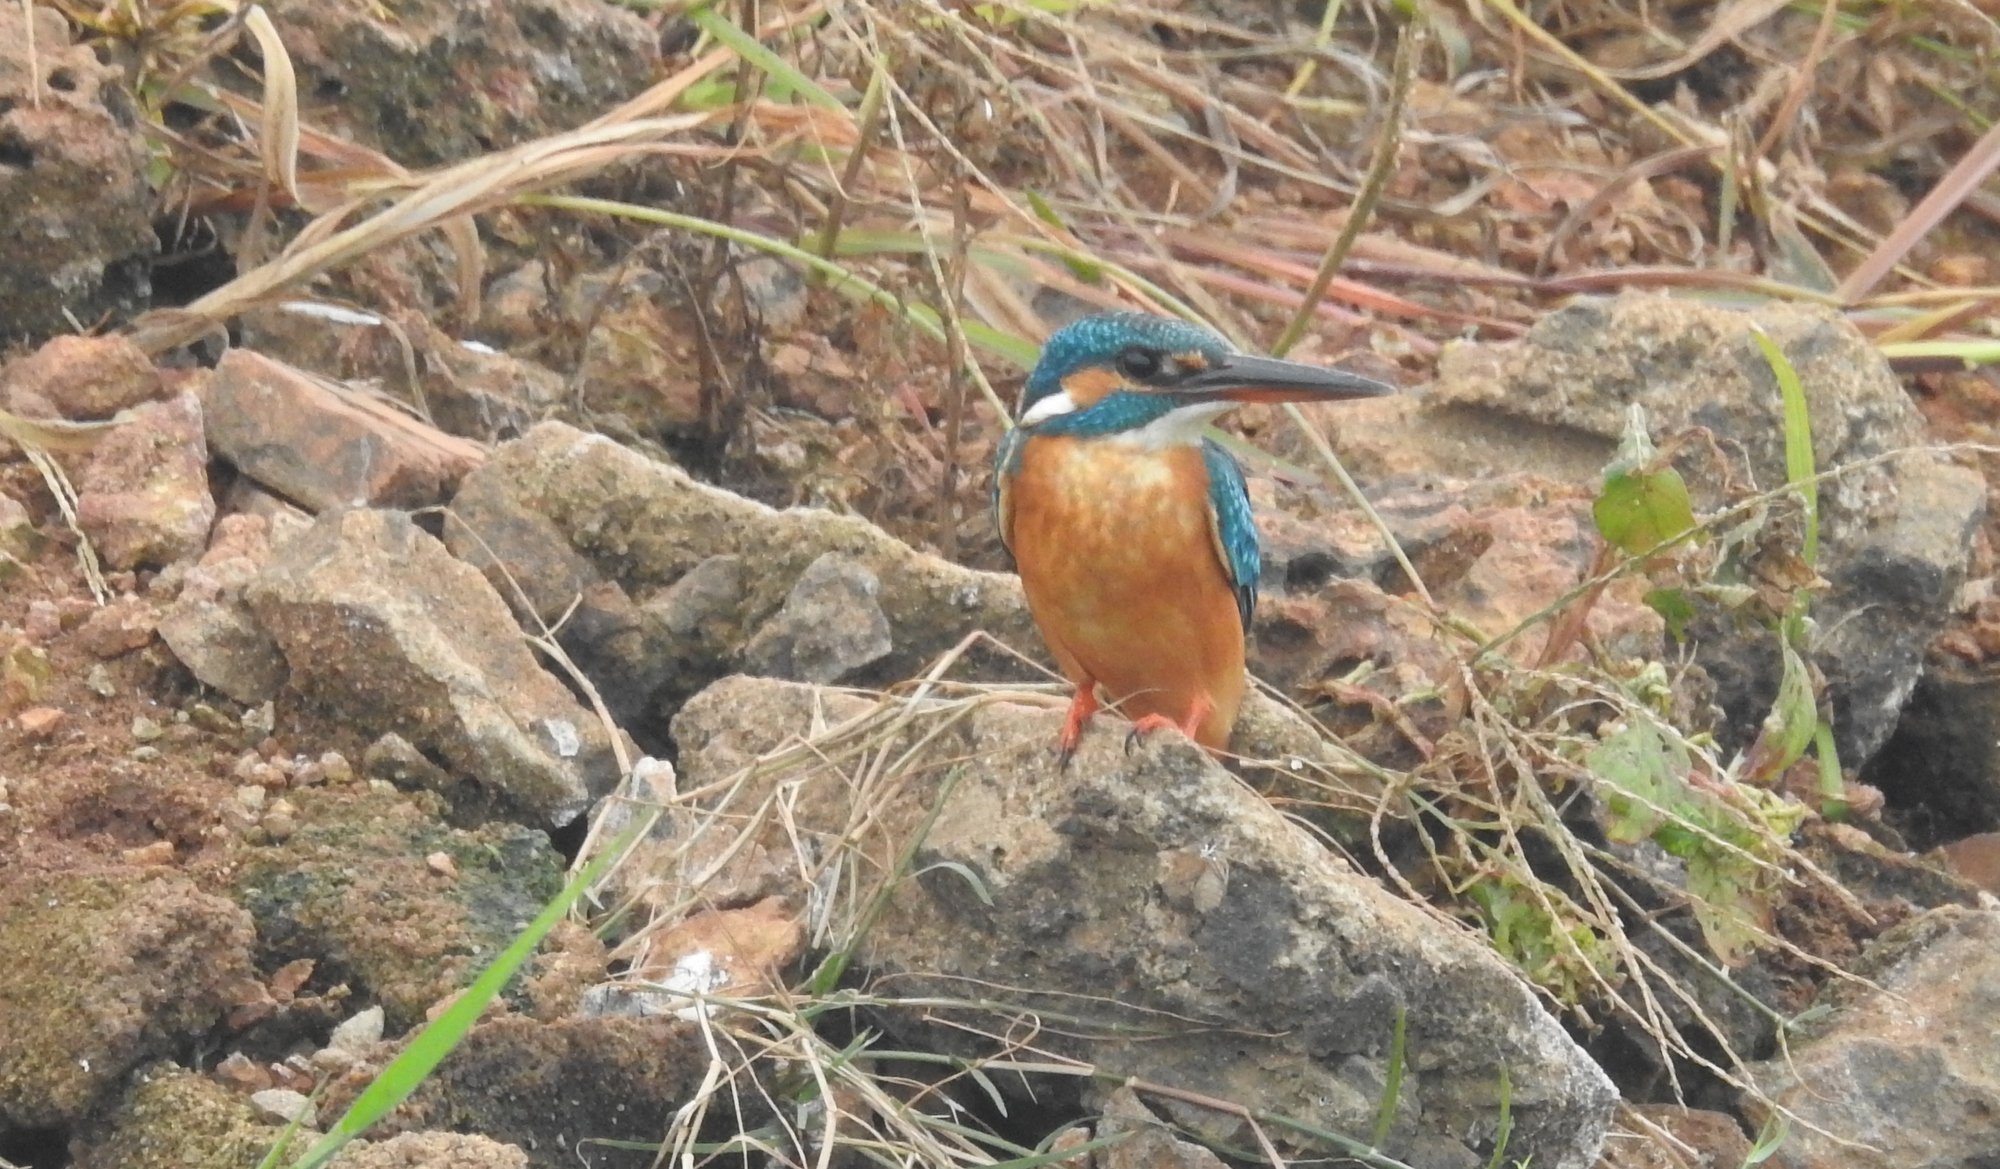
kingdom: Animalia
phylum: Chordata
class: Aves
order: Coraciiformes
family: Alcedinidae
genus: Alcedo
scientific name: Alcedo atthis
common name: Common kingfisher
